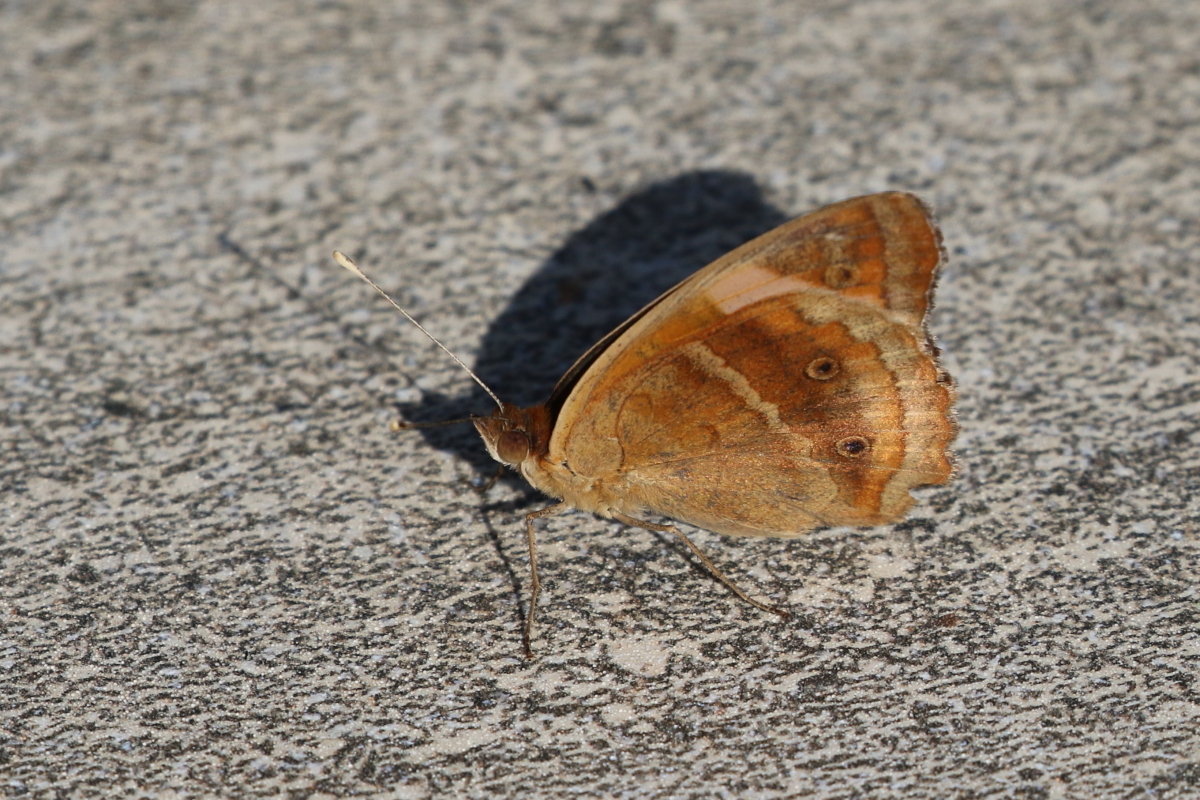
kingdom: Animalia
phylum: Arthropoda
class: Insecta
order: Lepidoptera
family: Nymphalidae
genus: Junonia
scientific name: Junonia lavinia
